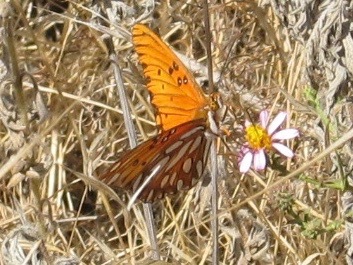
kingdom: Animalia
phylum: Arthropoda
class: Insecta
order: Lepidoptera
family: Nymphalidae
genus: Dione
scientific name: Dione vanillae
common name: Gulf fritillary
